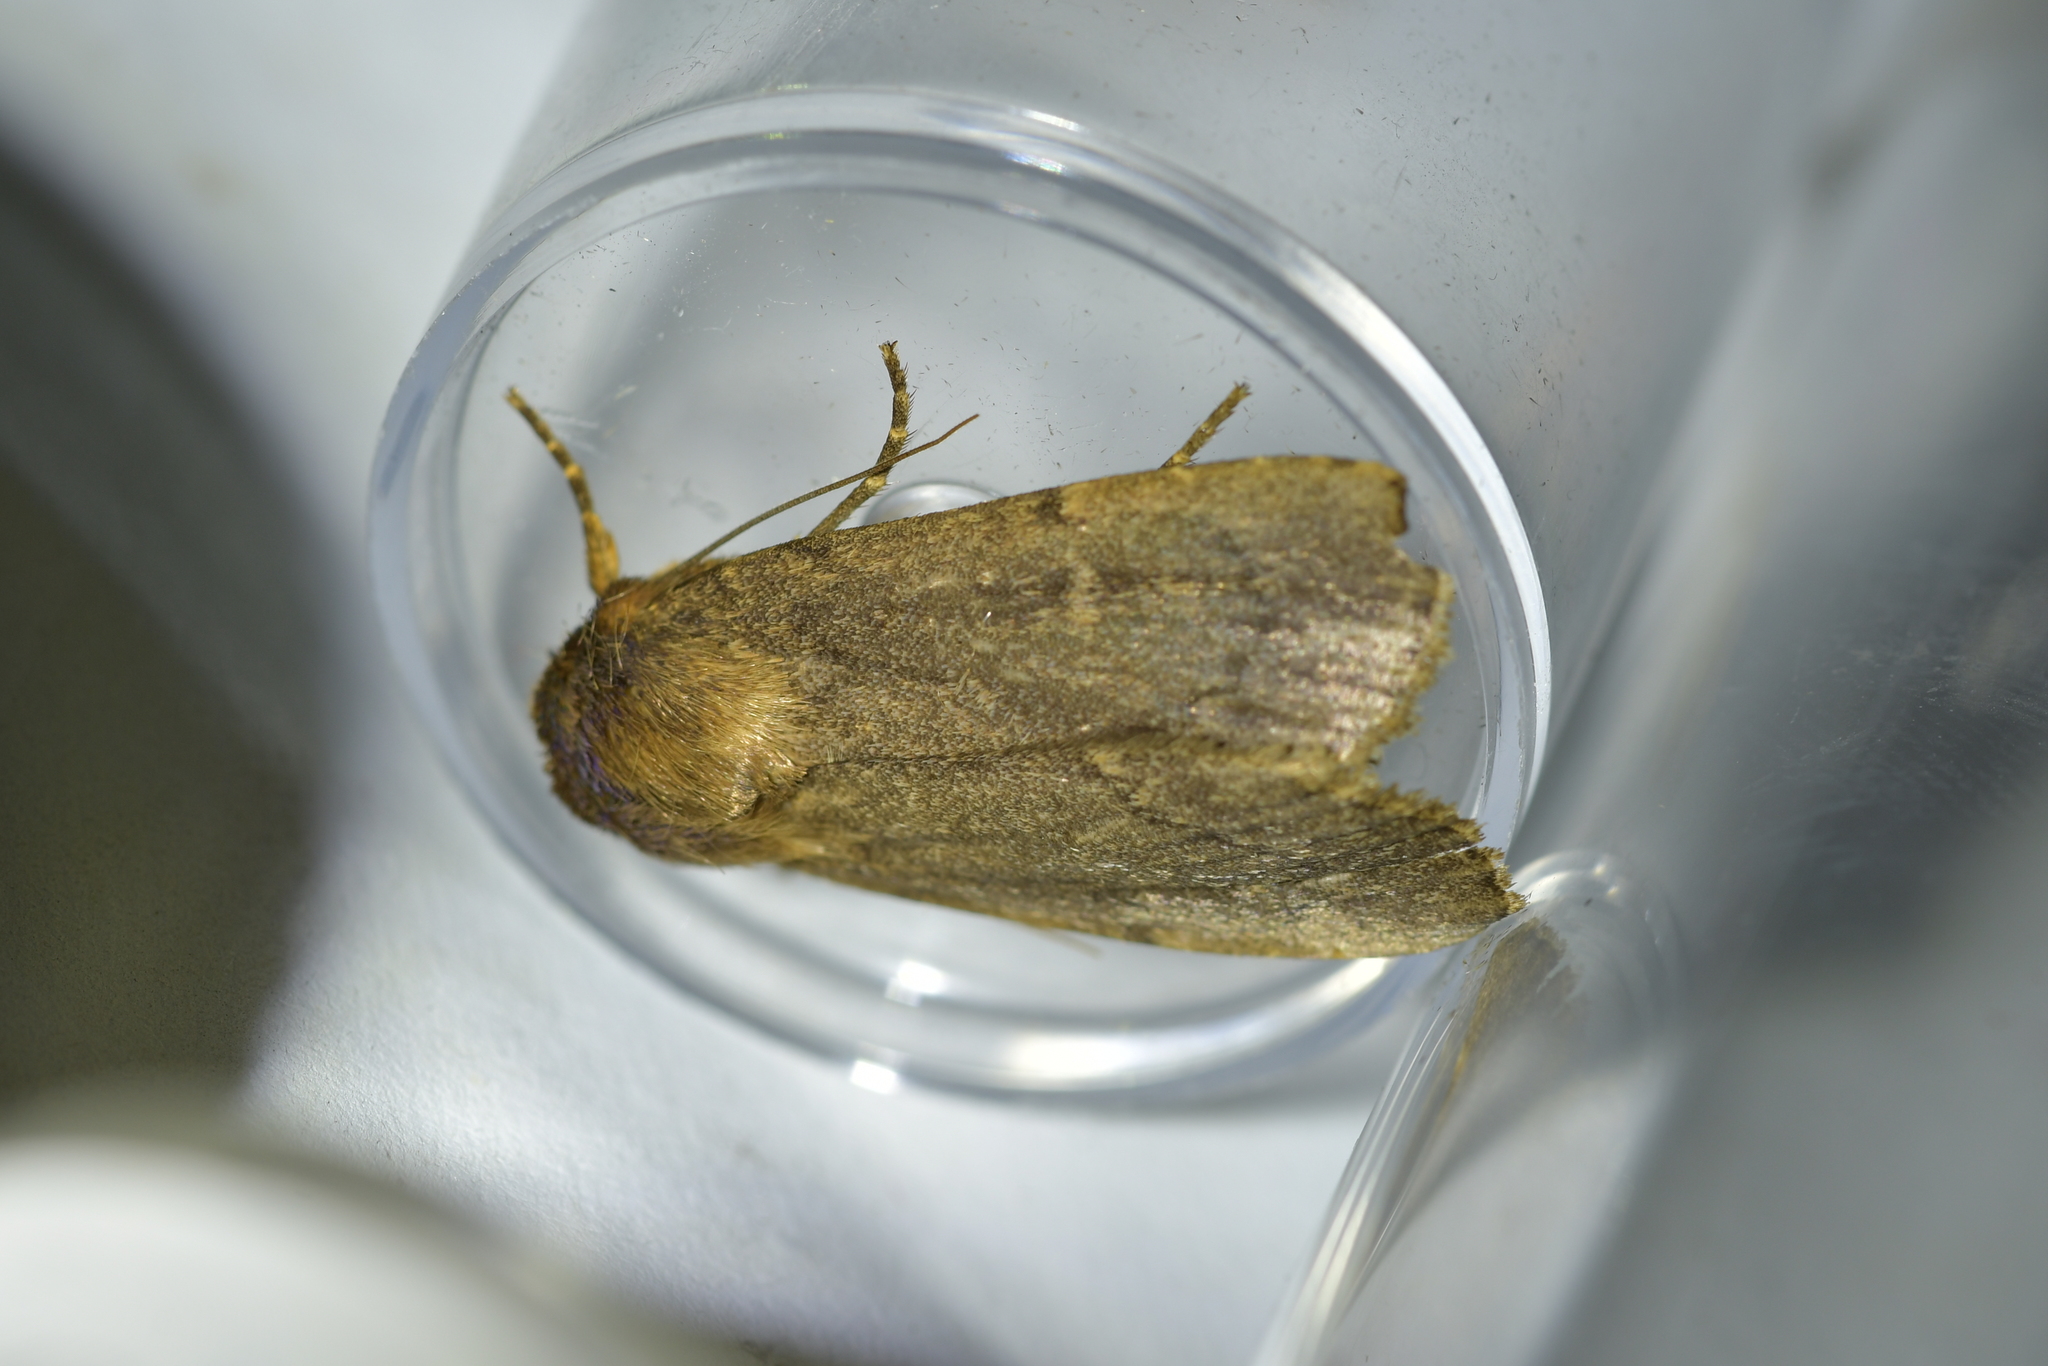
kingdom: Animalia
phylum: Arthropoda
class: Insecta
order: Lepidoptera
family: Noctuidae
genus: Bityla
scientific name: Bityla defigurata
